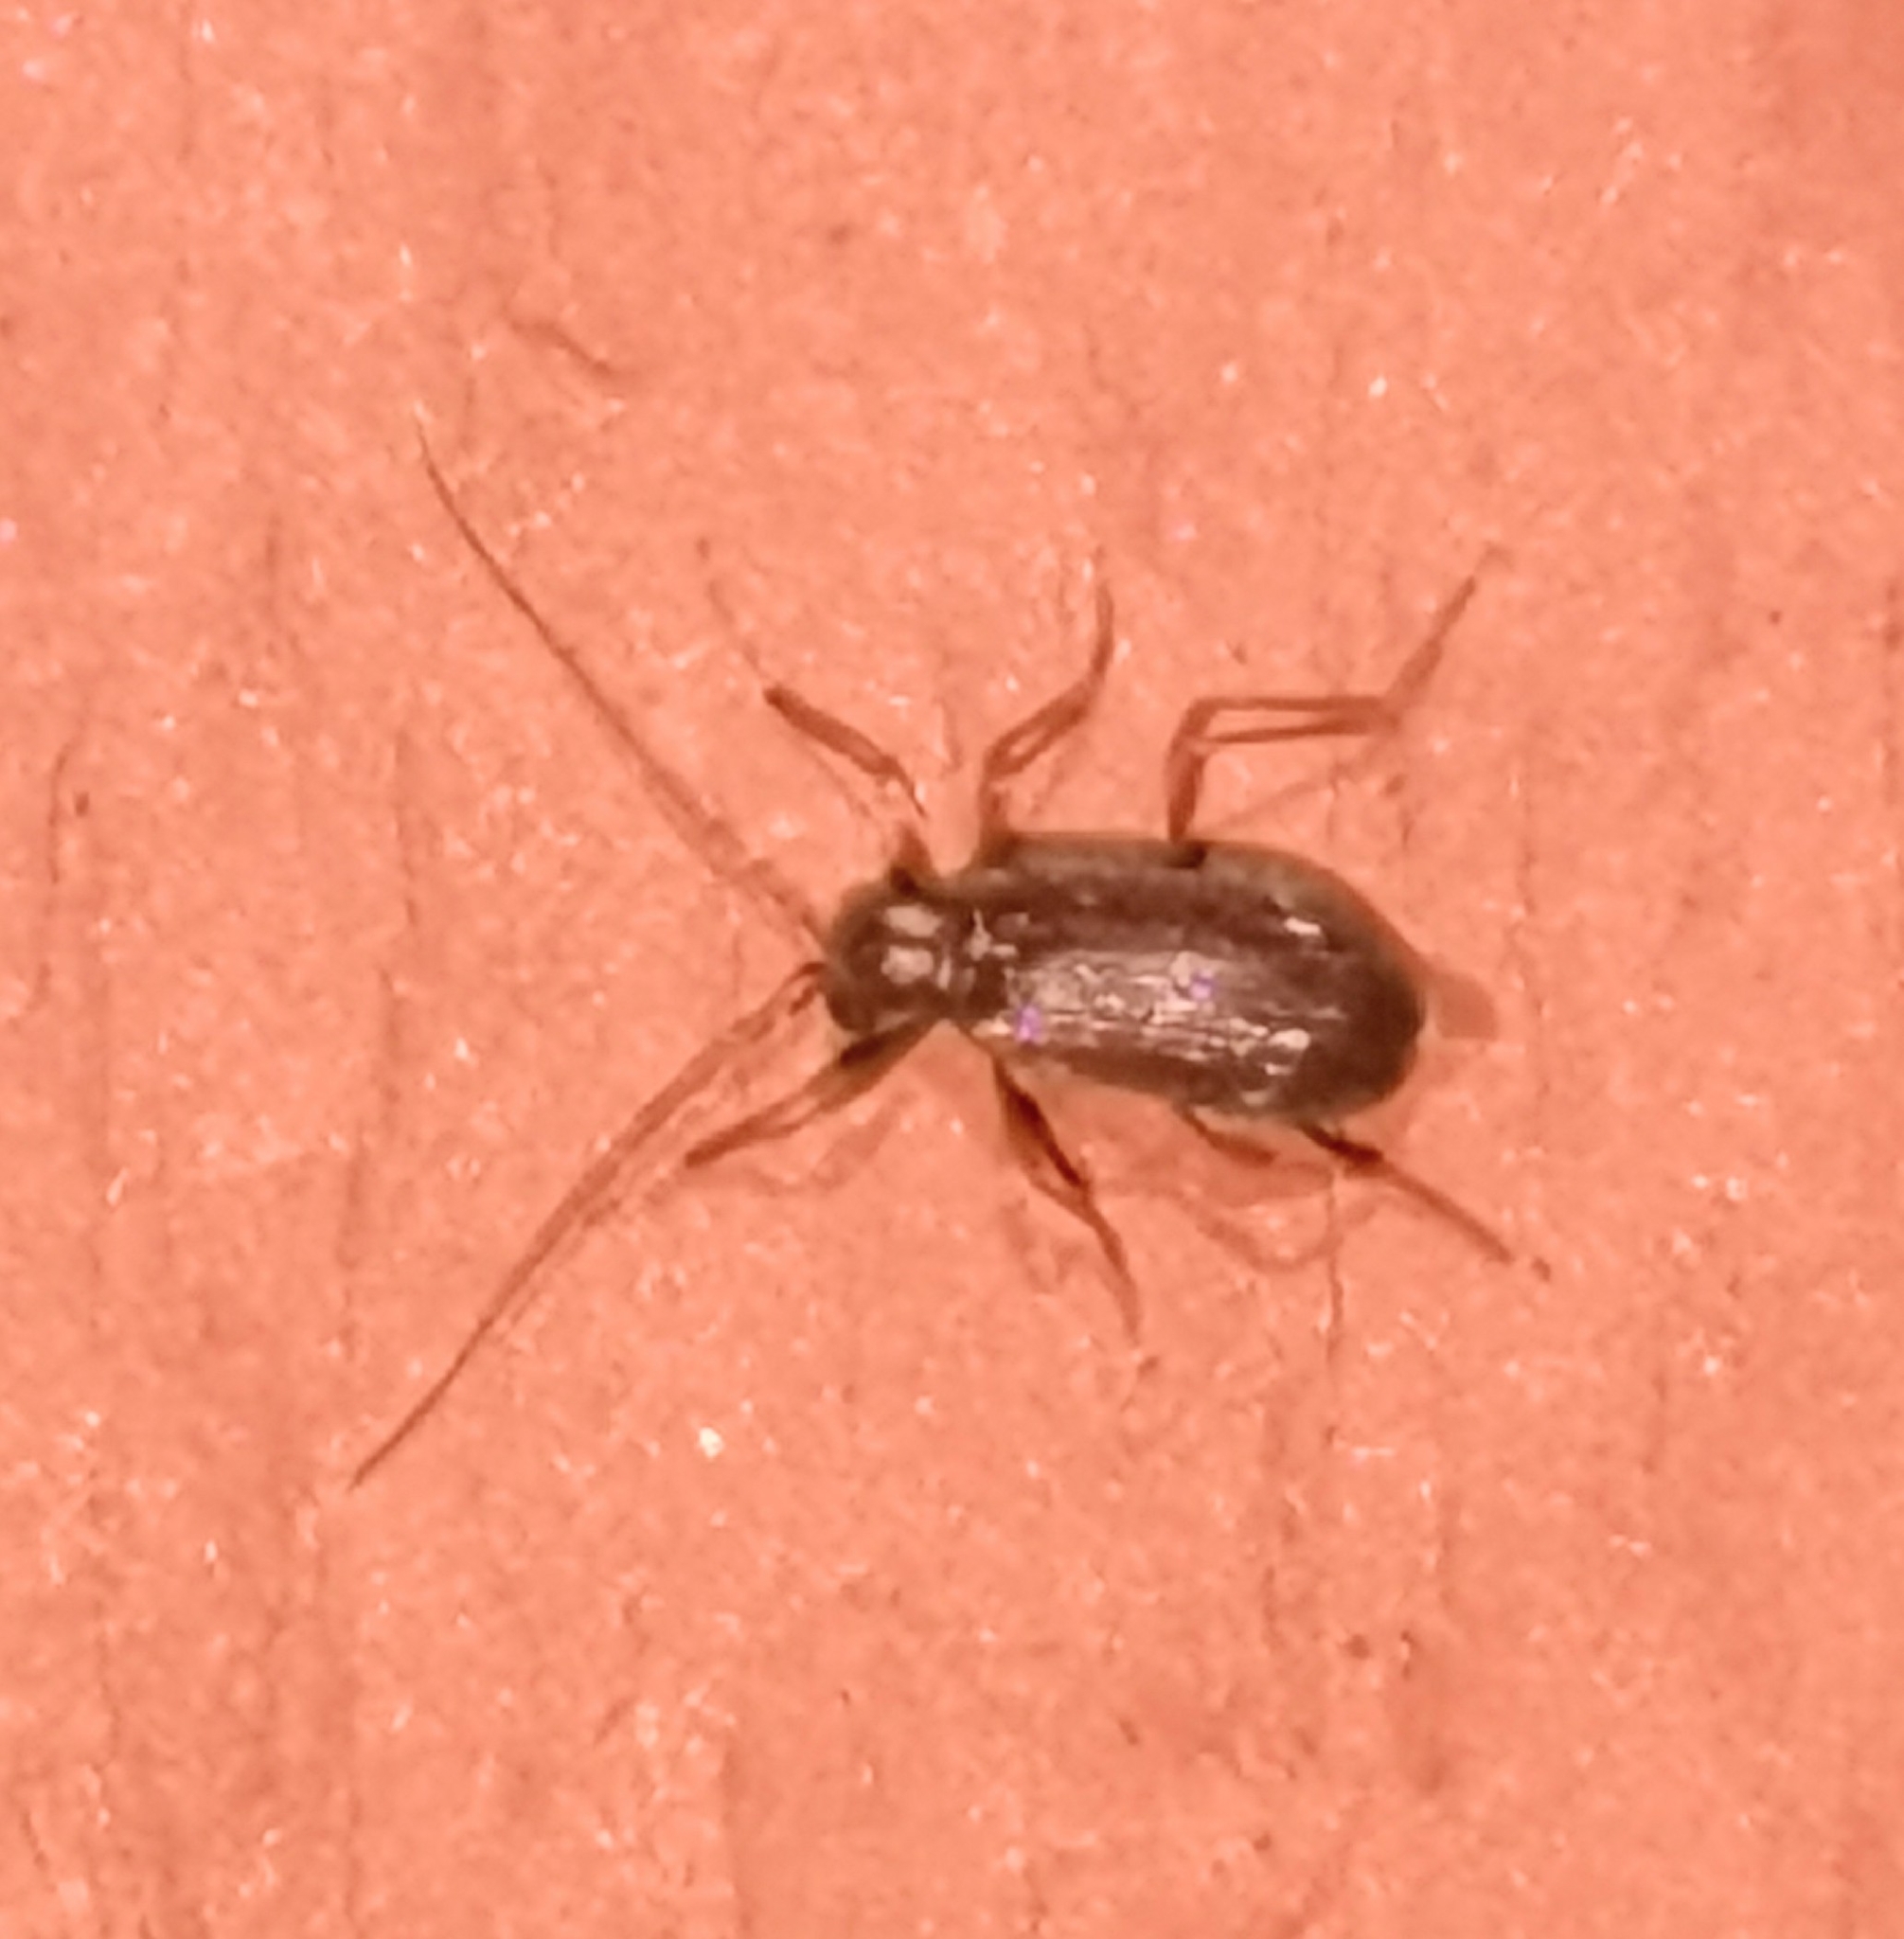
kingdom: Animalia
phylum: Arthropoda
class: Insecta
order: Coleoptera
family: Ptinidae
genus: Ptinus
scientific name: Ptinus raptor
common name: Eastern spider beetle
